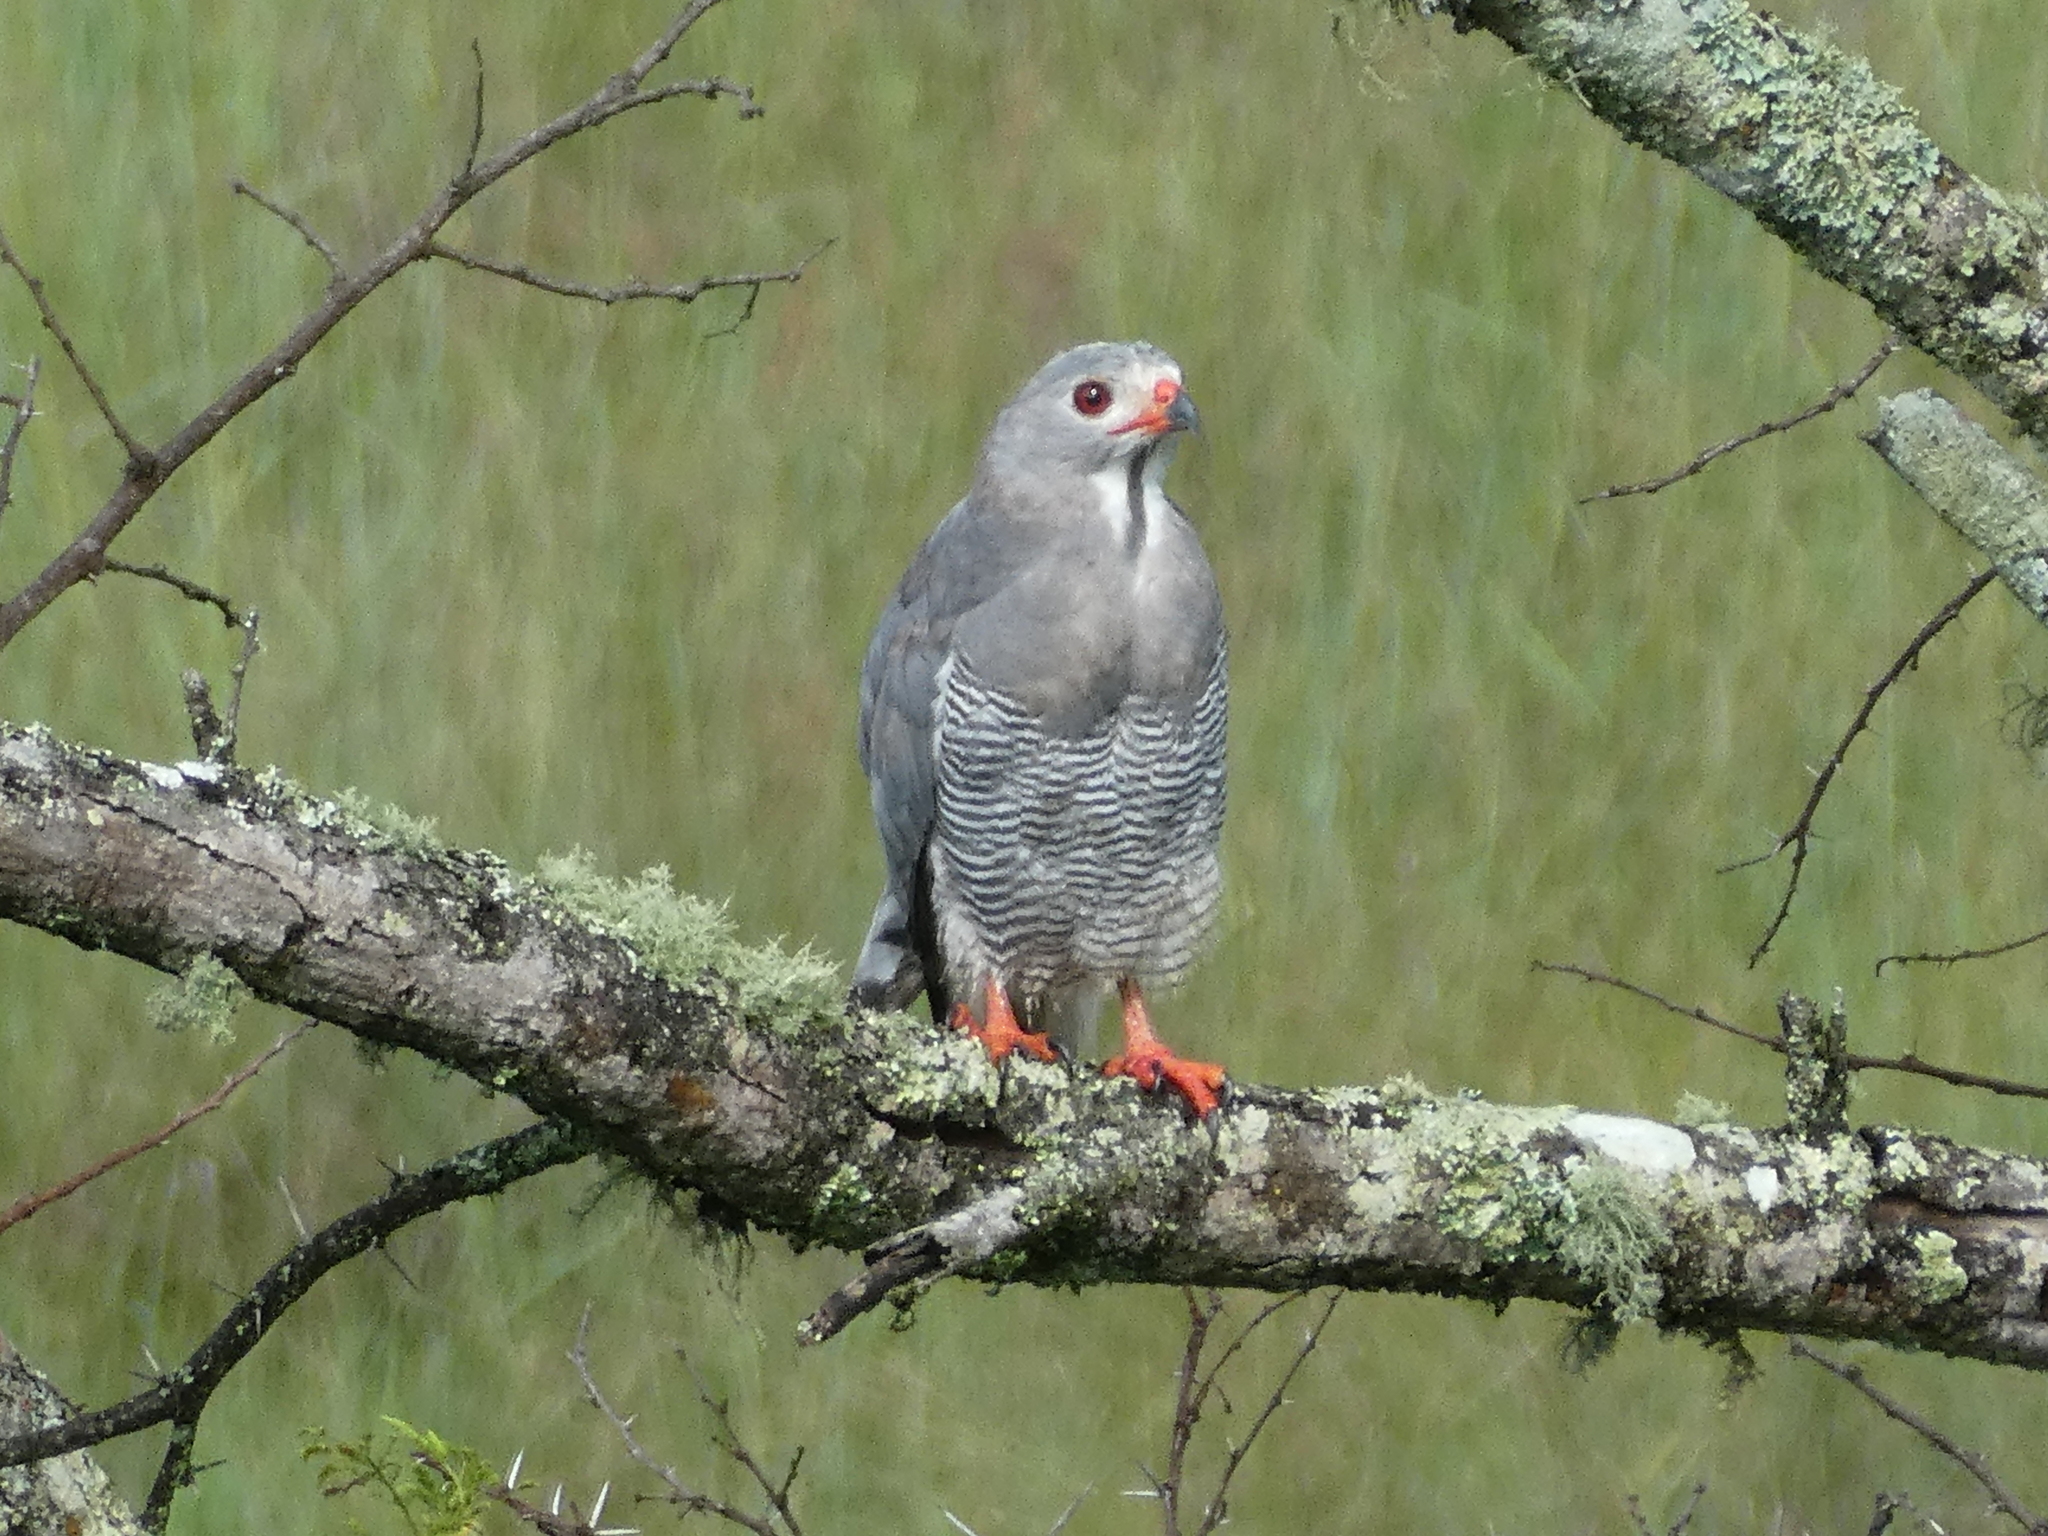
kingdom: Animalia
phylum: Chordata
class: Aves
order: Accipitriformes
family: Accipitridae
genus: Kaupifalco
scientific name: Kaupifalco monogrammicus
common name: Lizard buzzard
